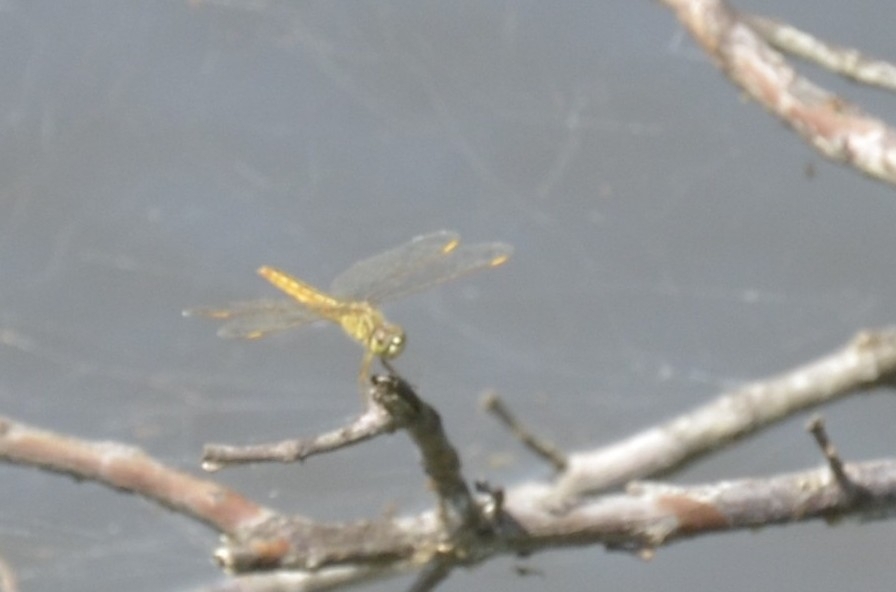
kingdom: Animalia
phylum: Arthropoda
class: Insecta
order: Odonata
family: Libellulidae
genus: Brachythemis
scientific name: Brachythemis contaminata
